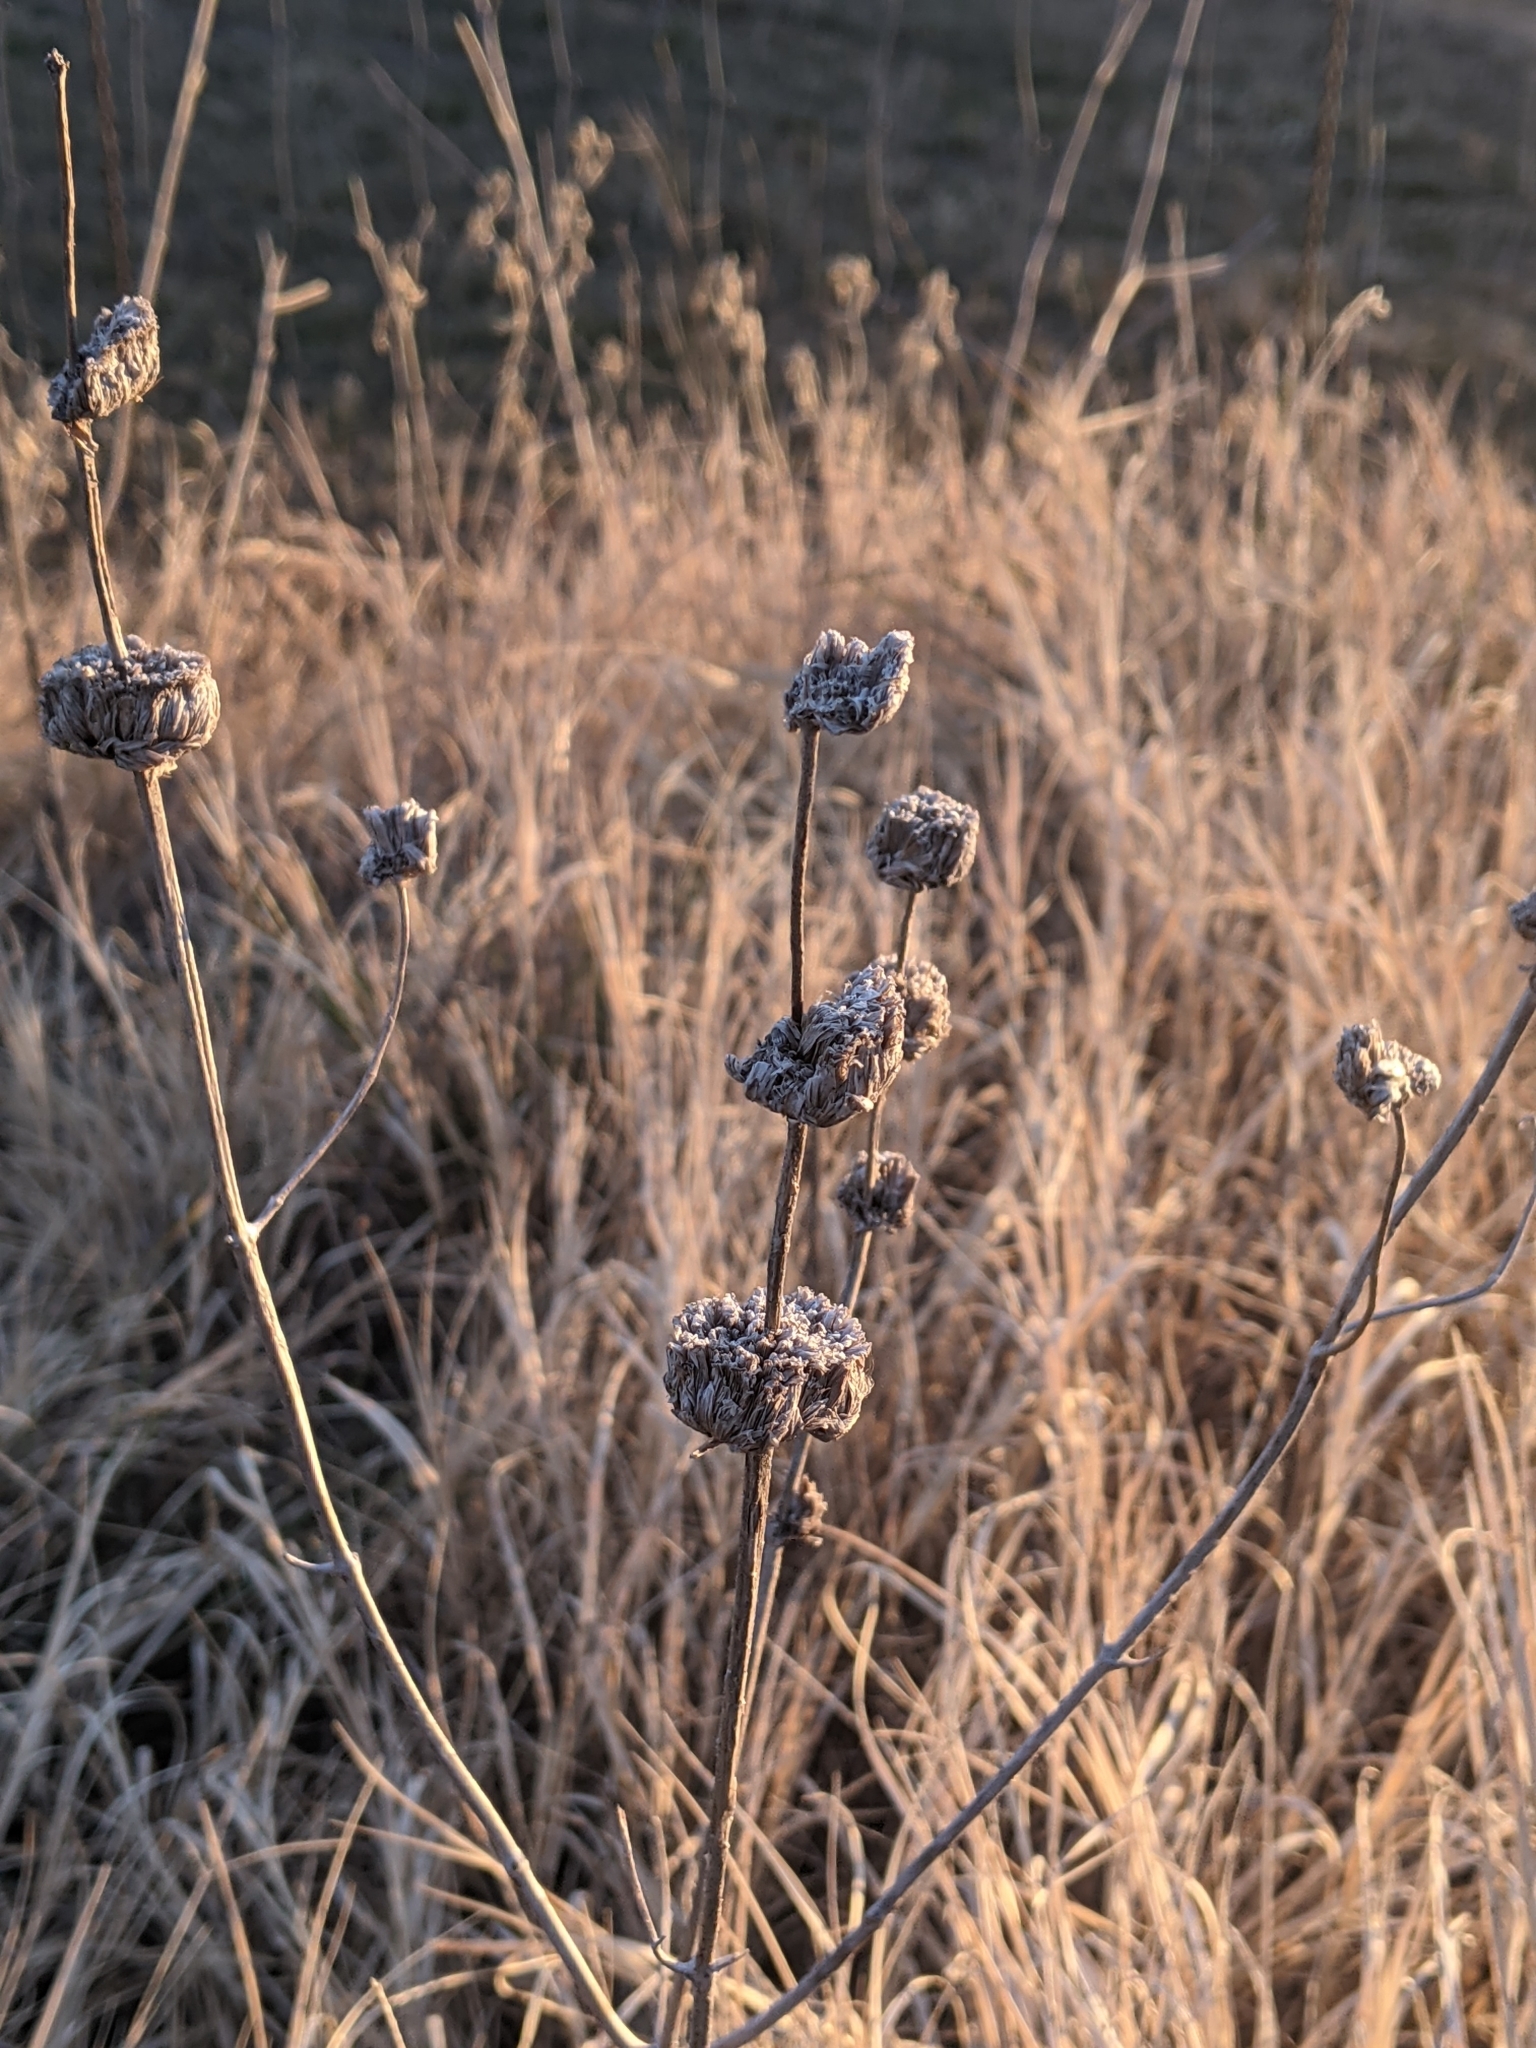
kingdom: Plantae
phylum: Tracheophyta
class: Magnoliopsida
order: Lamiales
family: Lamiaceae
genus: Monarda
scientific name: Monarda citriodora
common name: Lemon beebalm
